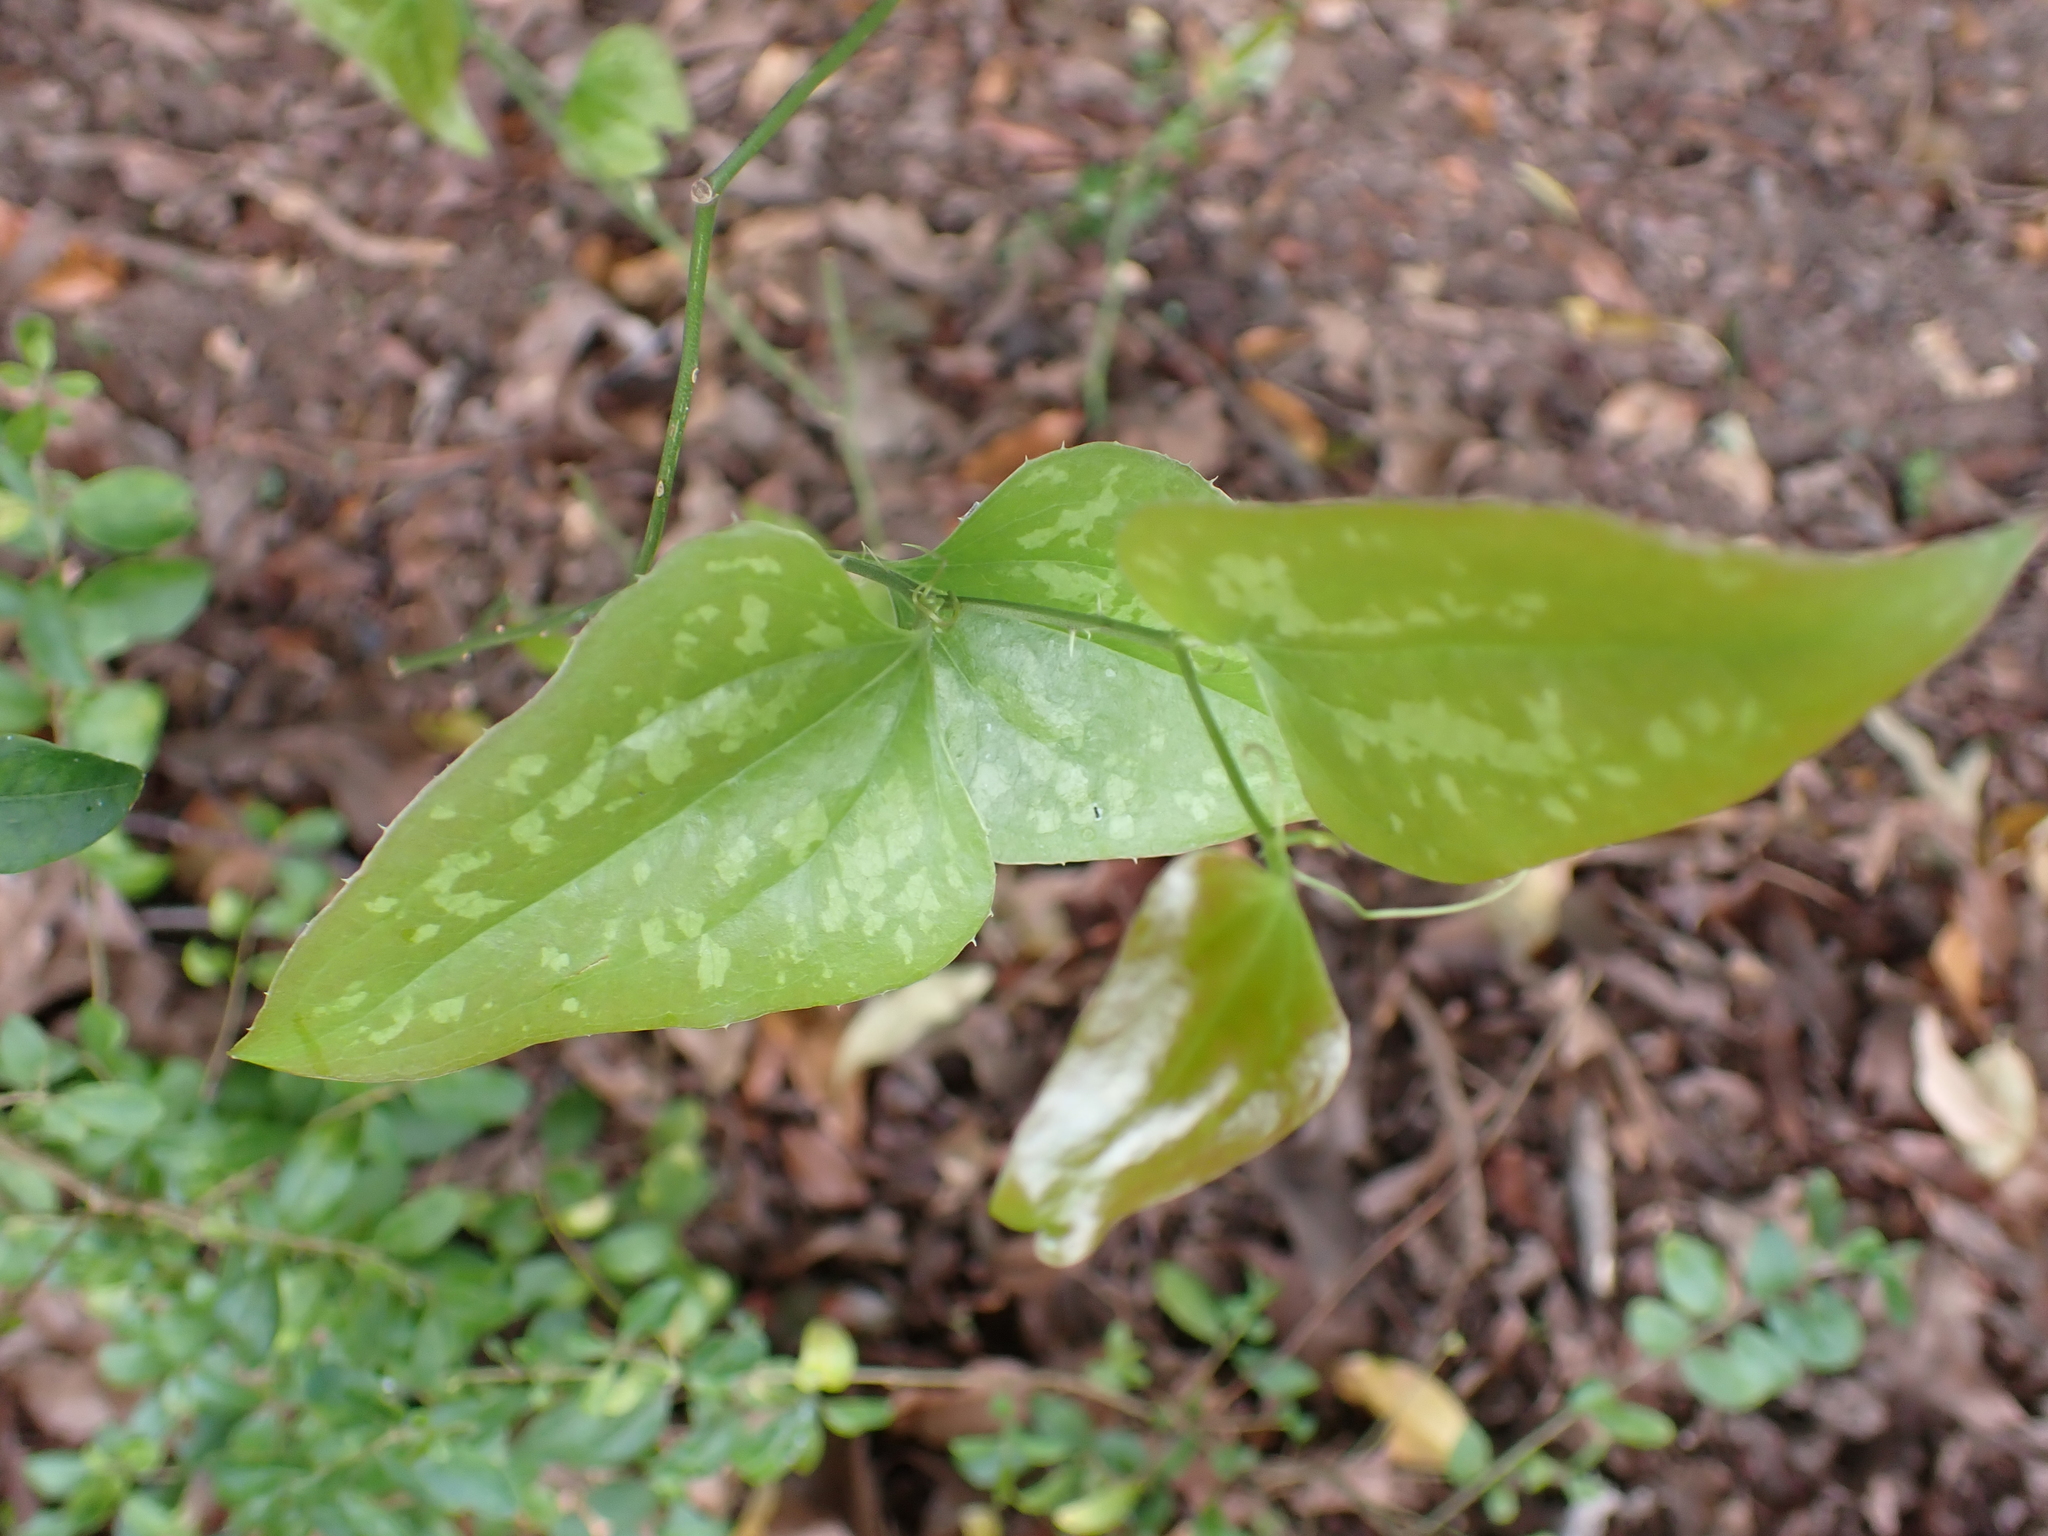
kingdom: Plantae
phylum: Tracheophyta
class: Liliopsida
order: Liliales
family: Smilacaceae
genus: Smilax
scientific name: Smilax bona-nox
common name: Catbrier
